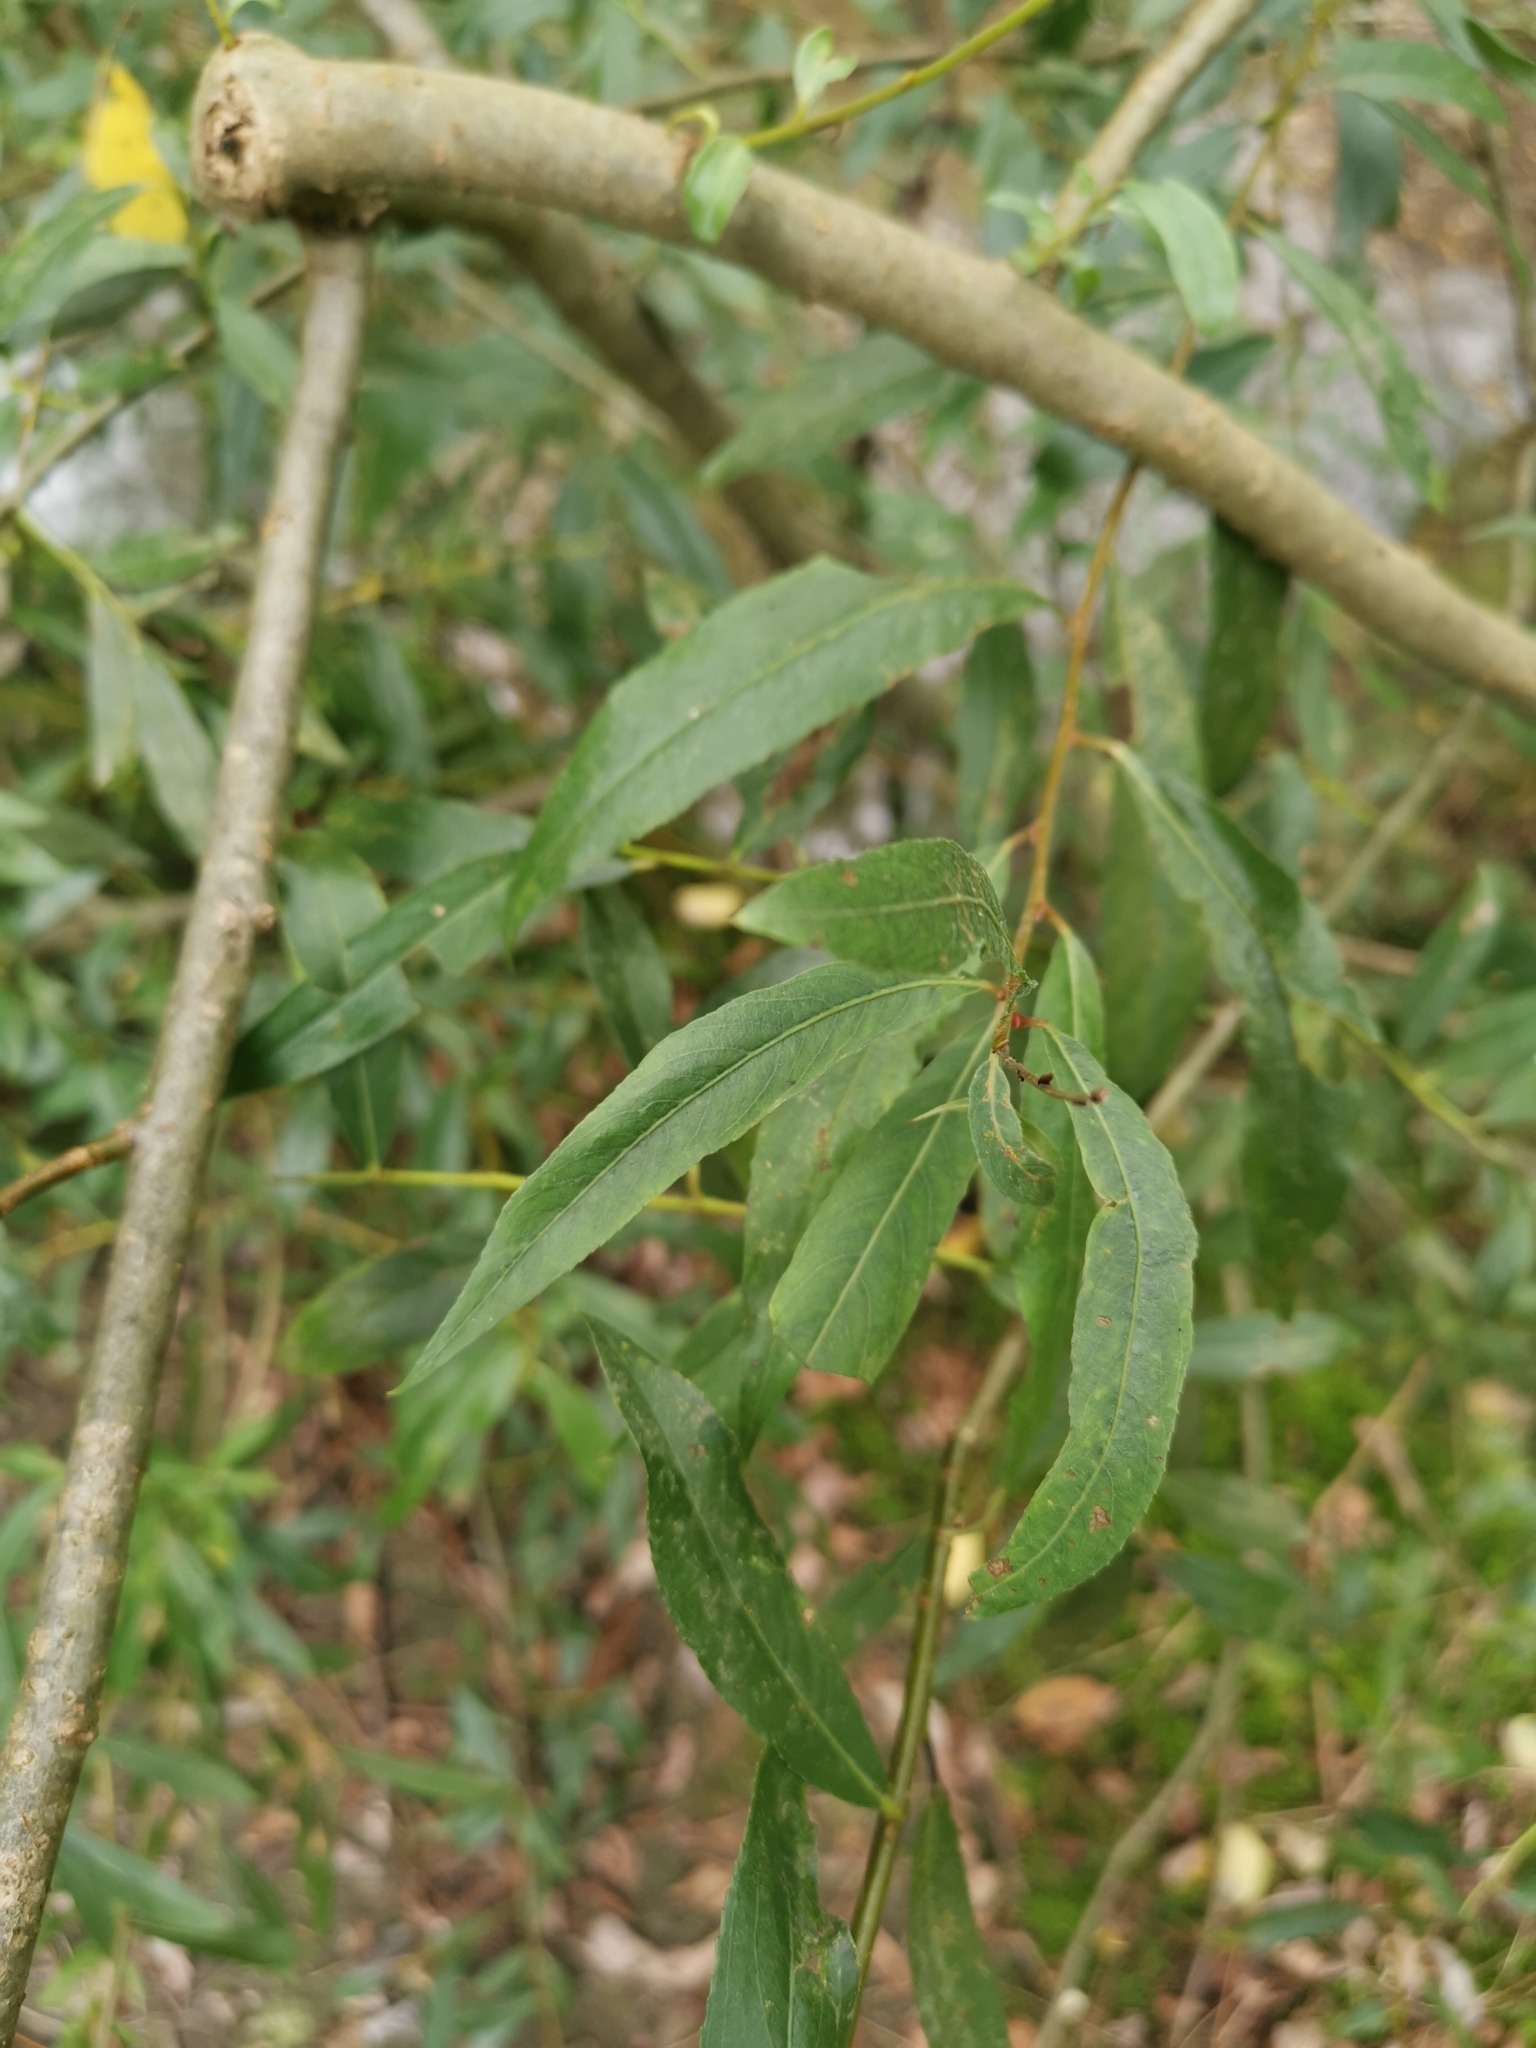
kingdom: Plantae
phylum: Tracheophyta
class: Magnoliopsida
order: Malpighiales
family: Salicaceae
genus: Salix
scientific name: Salix alba
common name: White willow
